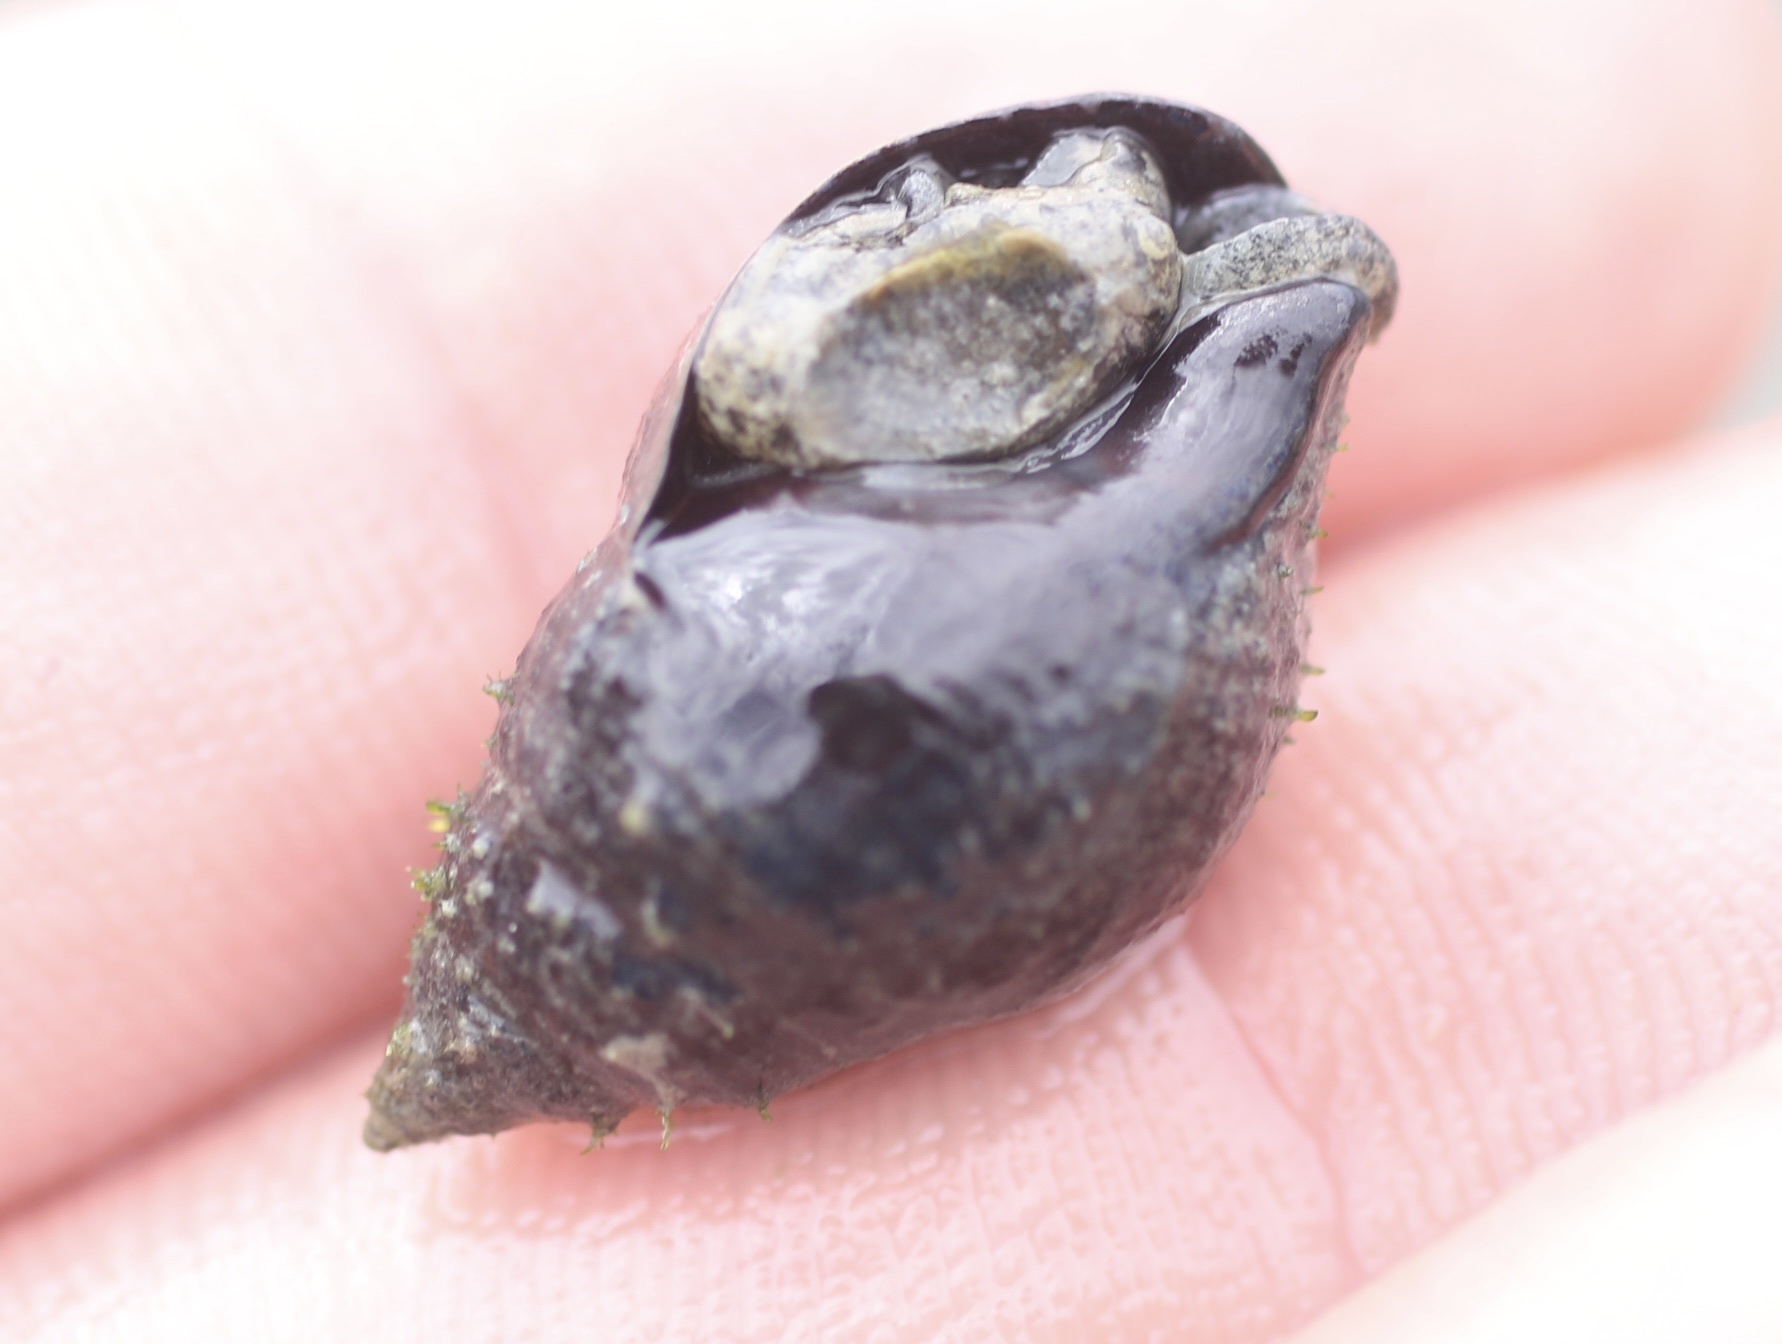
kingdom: Animalia
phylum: Mollusca
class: Gastropoda
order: Neogastropoda
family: Nassariidae
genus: Ilyanassa
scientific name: Ilyanassa obsoleta
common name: Eastern mudsnail
